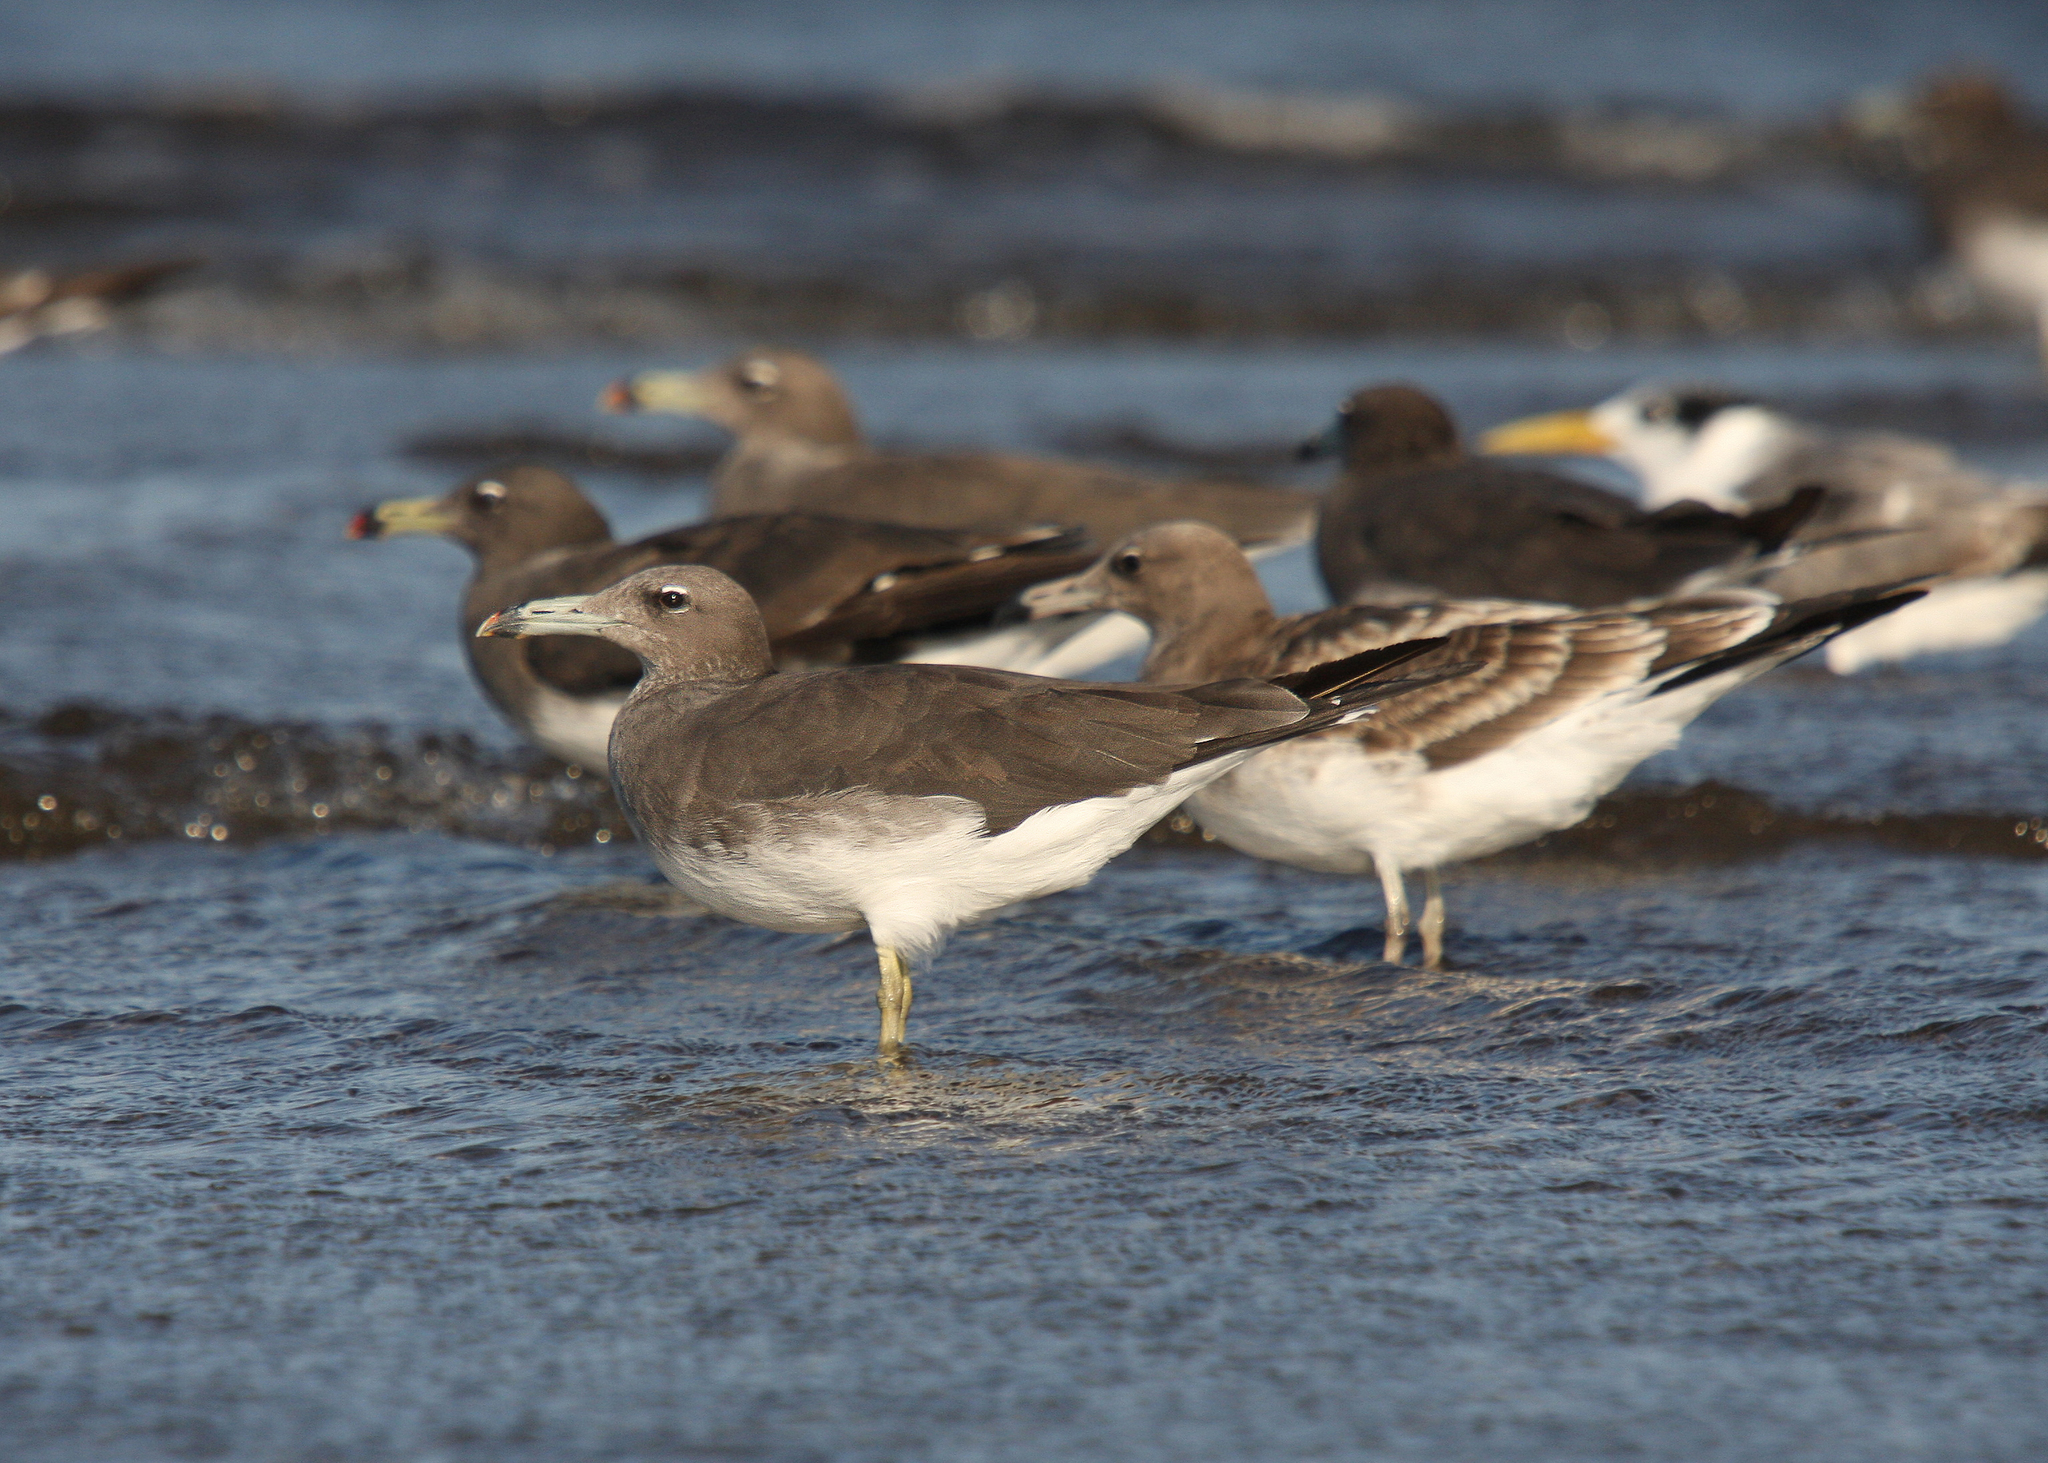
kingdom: Animalia
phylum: Chordata
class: Aves
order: Charadriiformes
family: Laridae
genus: Ichthyaetus
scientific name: Ichthyaetus hemprichii
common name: Sooty gull
